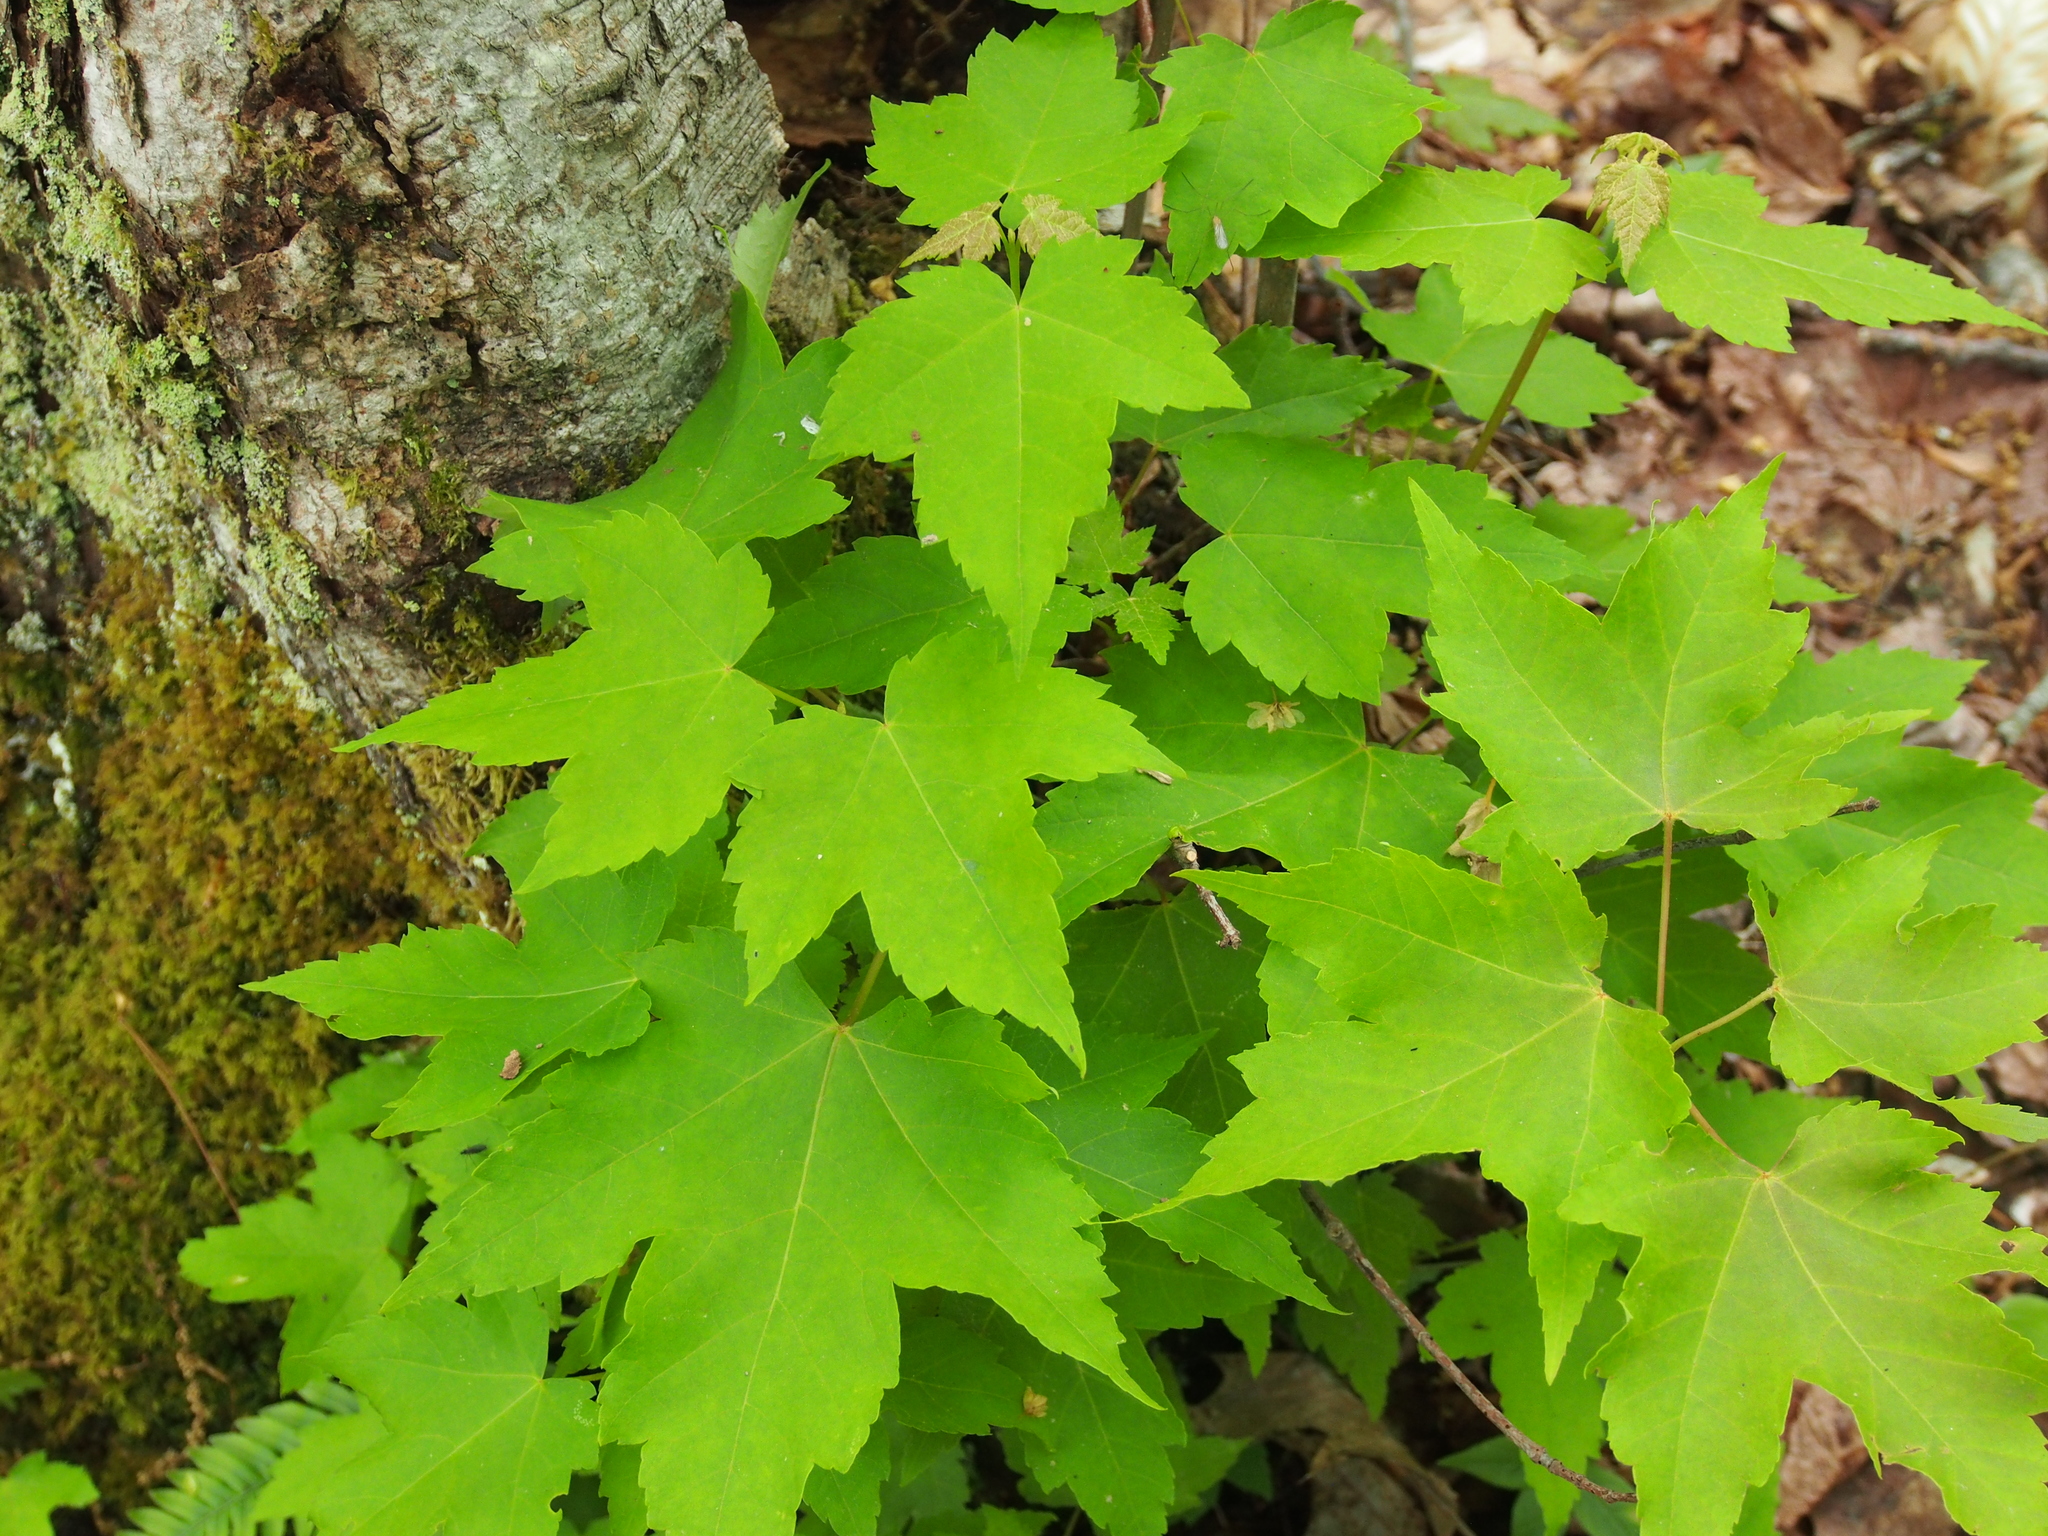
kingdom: Plantae
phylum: Tracheophyta
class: Magnoliopsida
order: Sapindales
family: Sapindaceae
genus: Acer
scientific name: Acer rubrum
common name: Red maple
